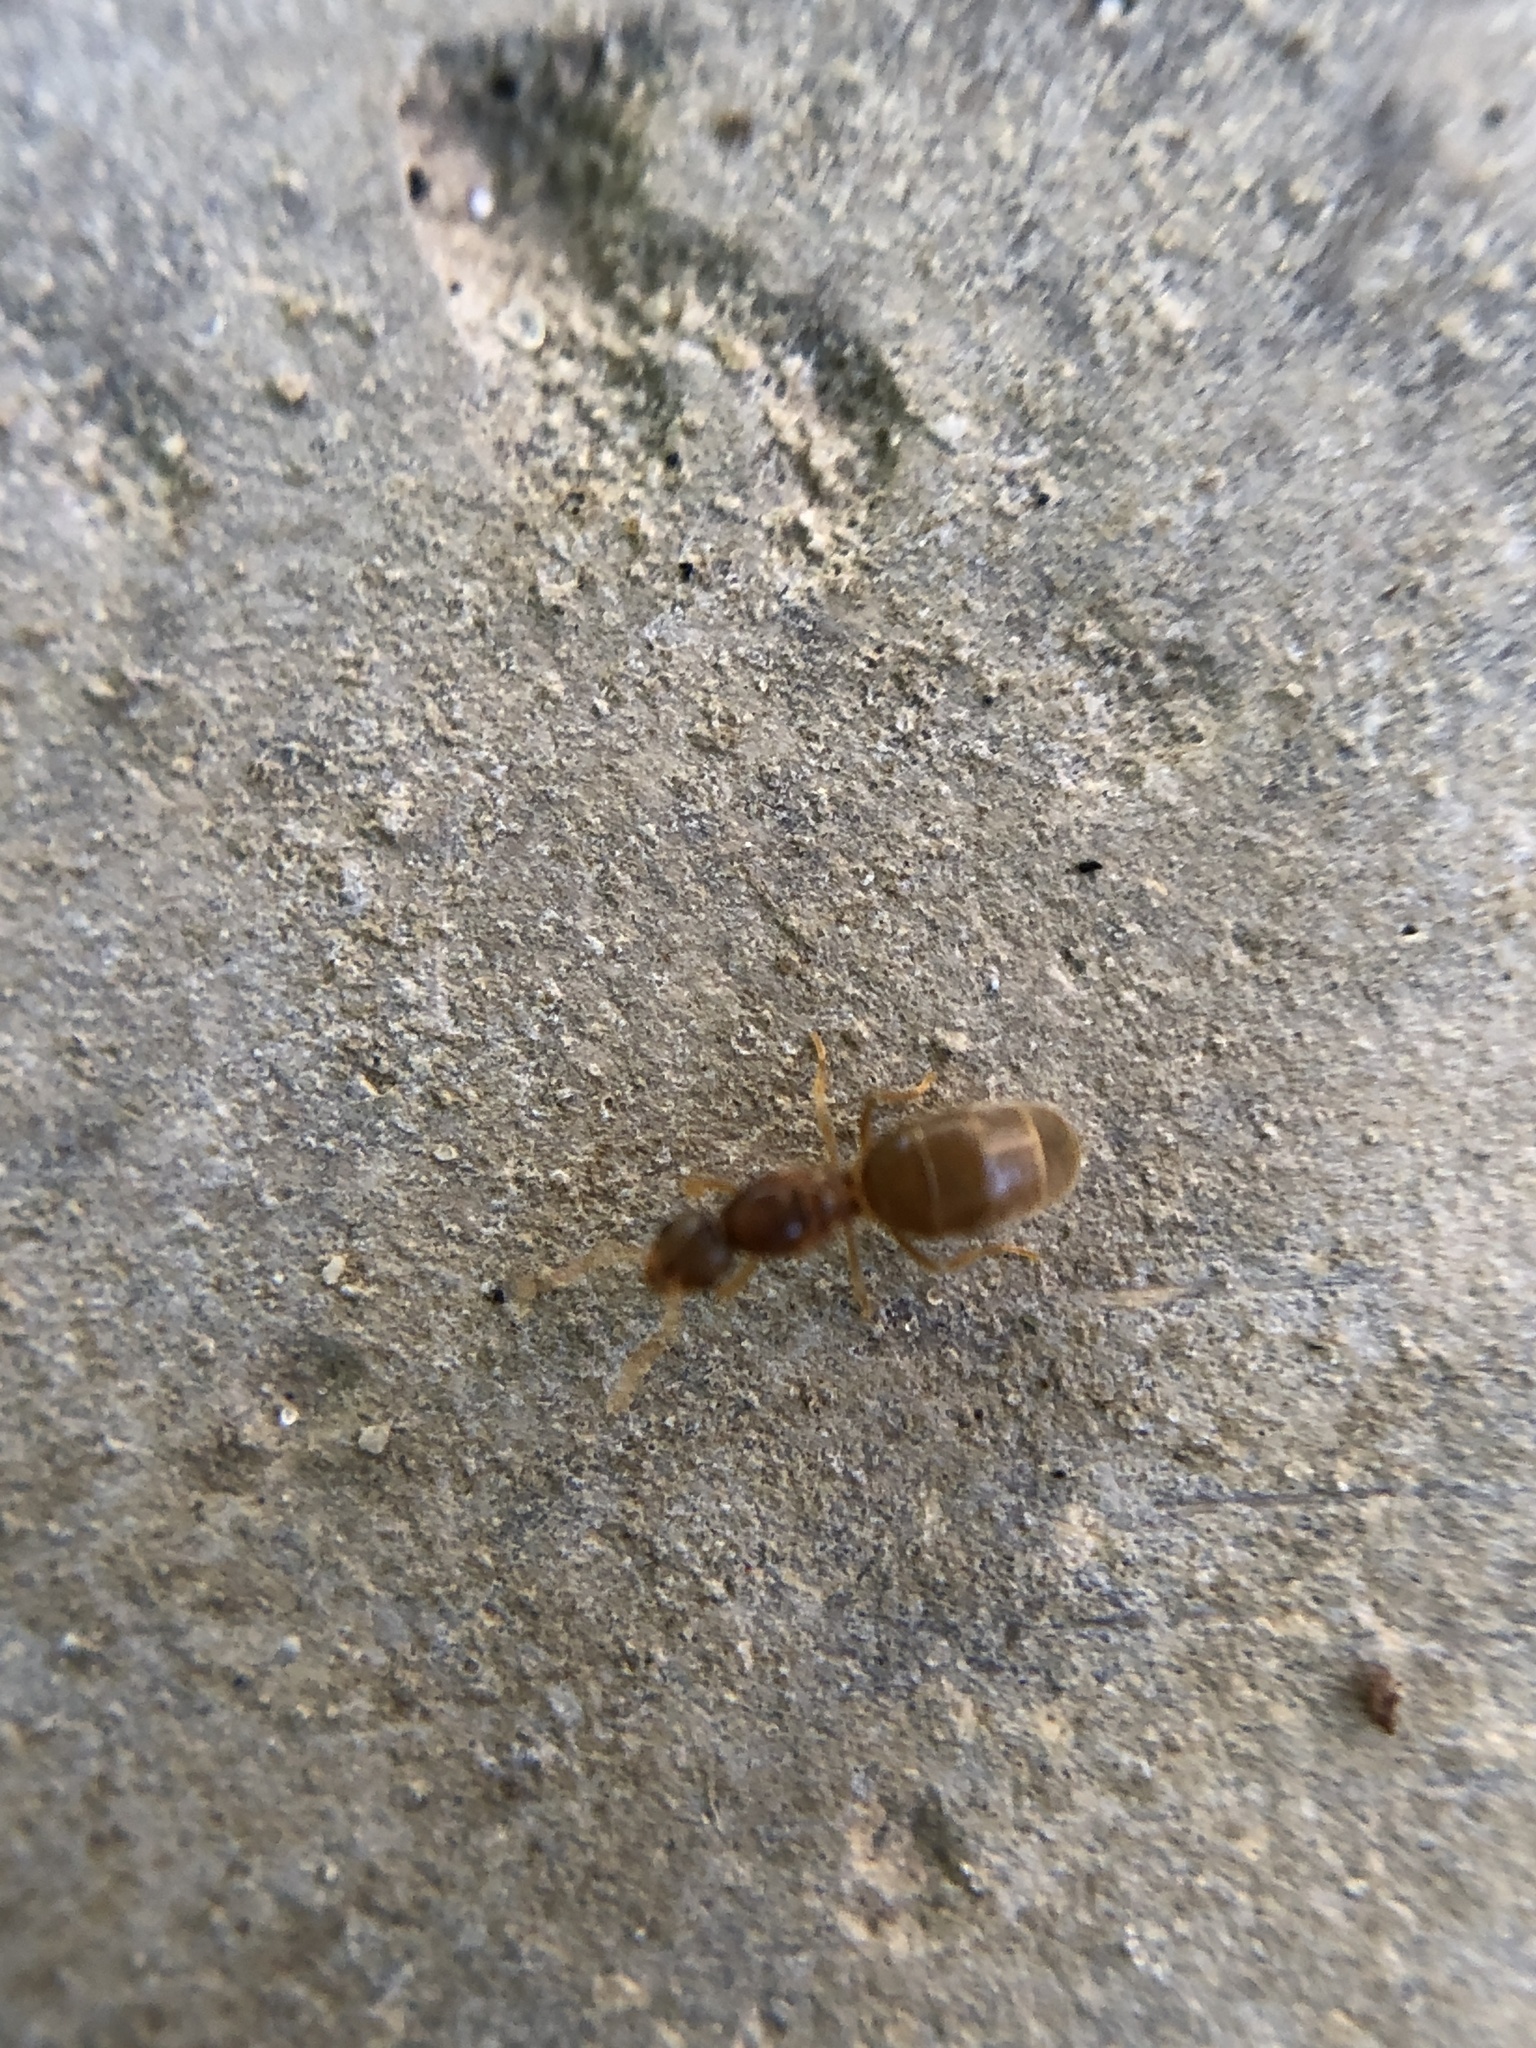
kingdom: Animalia
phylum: Arthropoda
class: Insecta
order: Hymenoptera
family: Formicidae
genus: Brachymyrmex
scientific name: Brachymyrmex depilis
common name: Hairless rover ant
